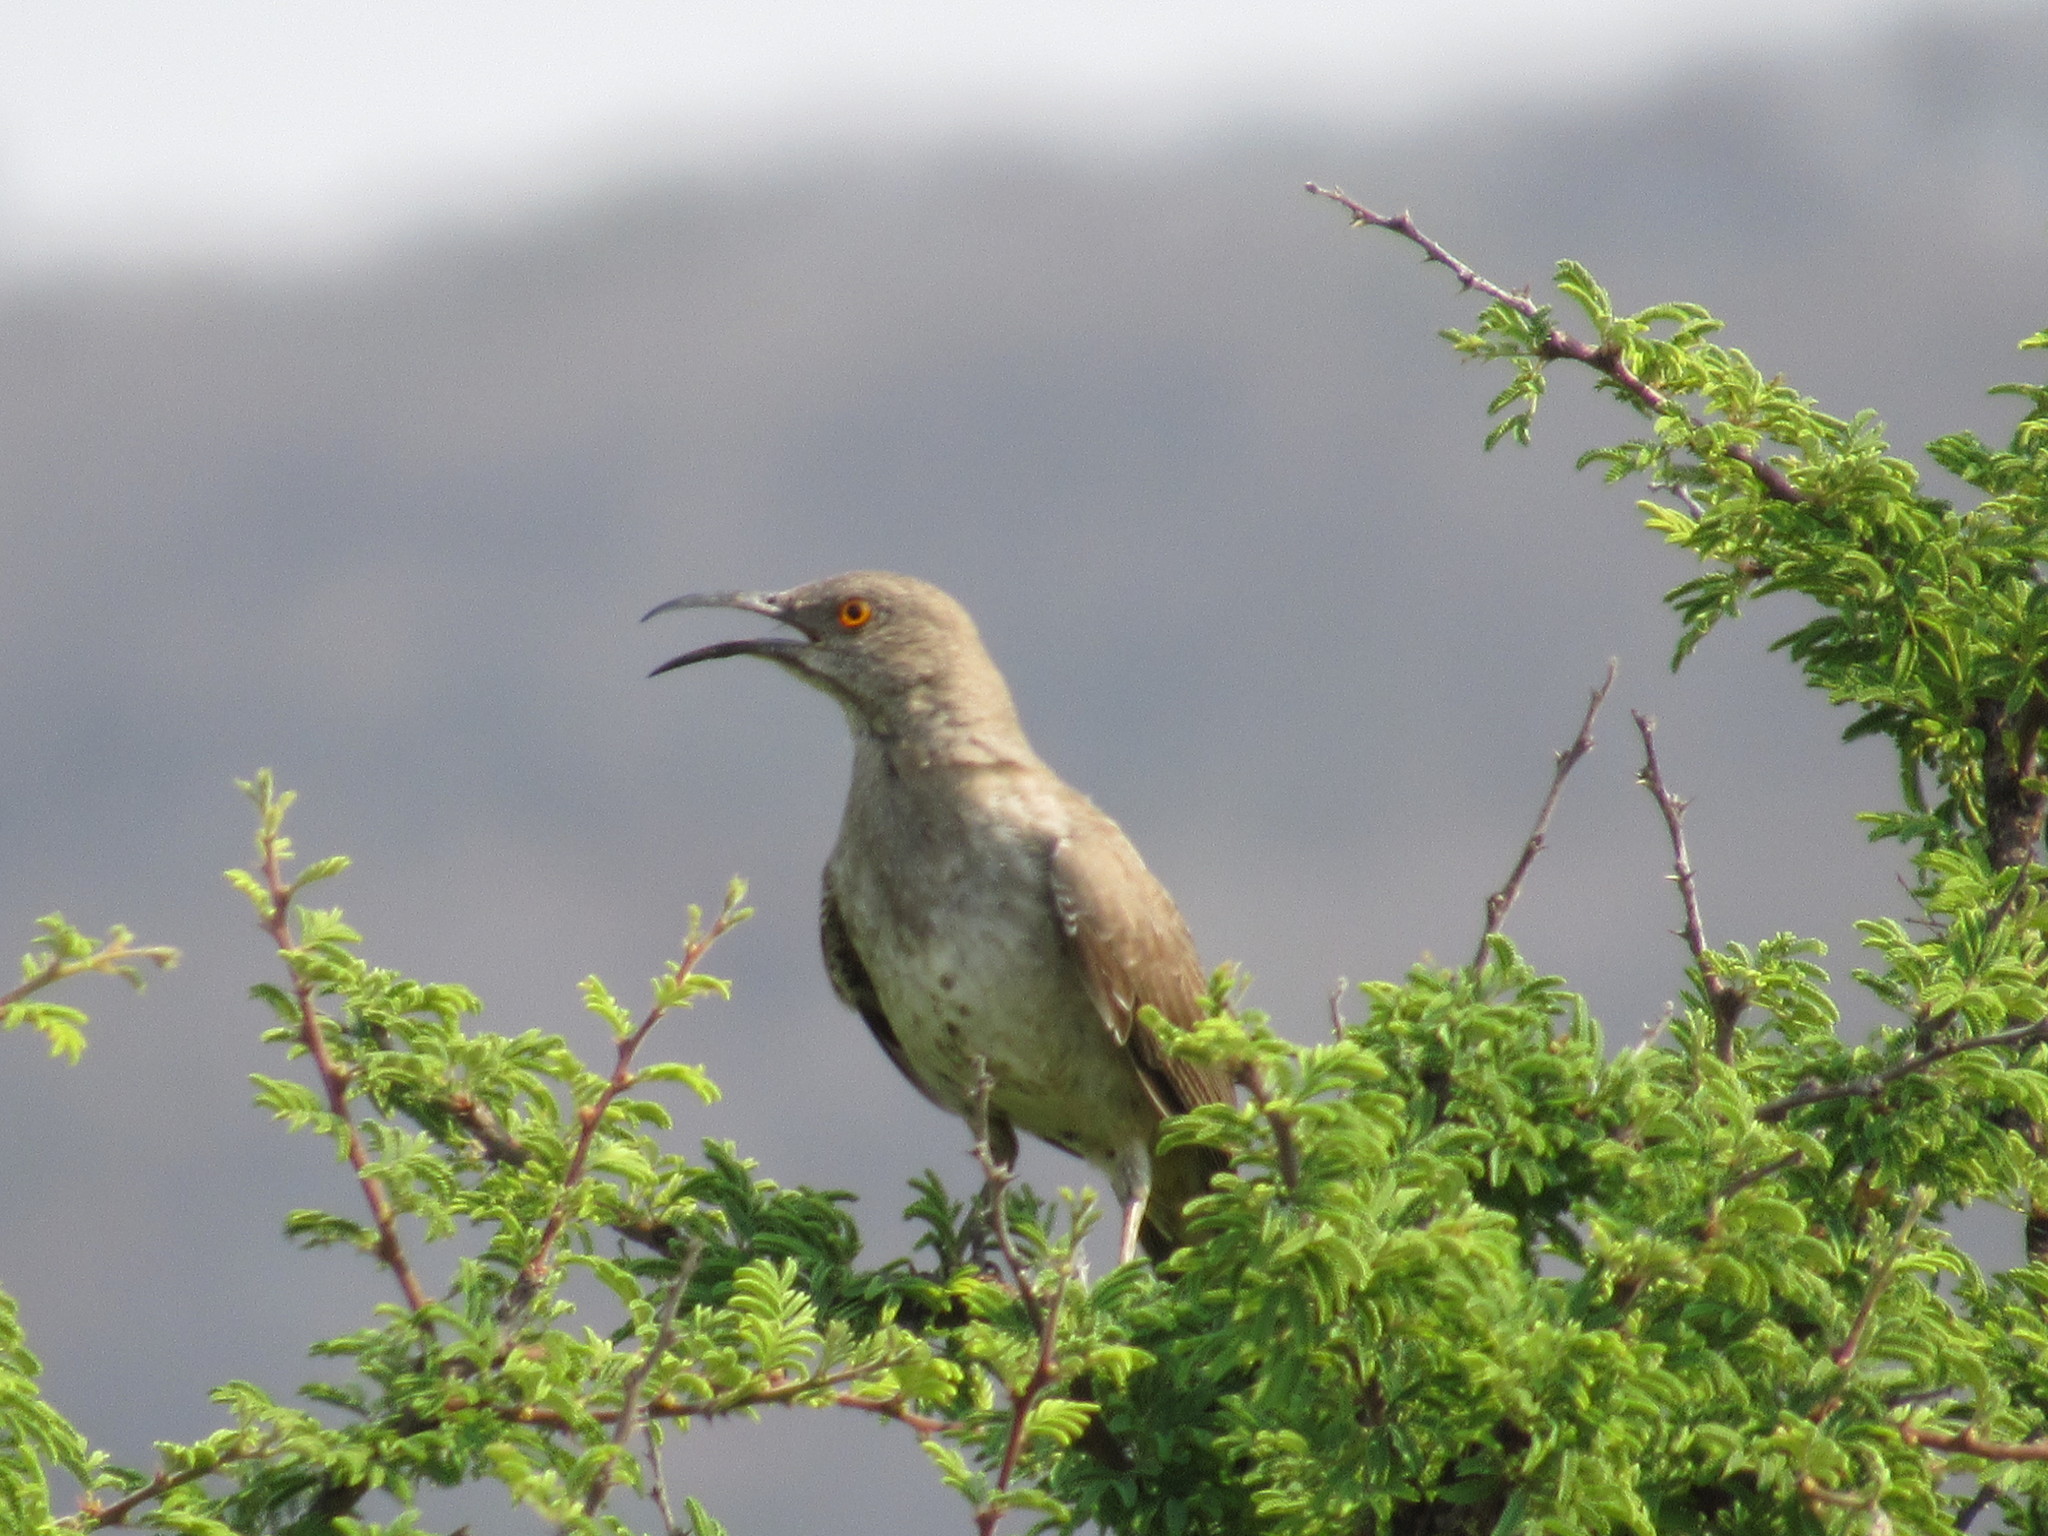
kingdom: Animalia
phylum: Chordata
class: Aves
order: Passeriformes
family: Mimidae
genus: Toxostoma
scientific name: Toxostoma curvirostre
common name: Curve-billed thrasher
